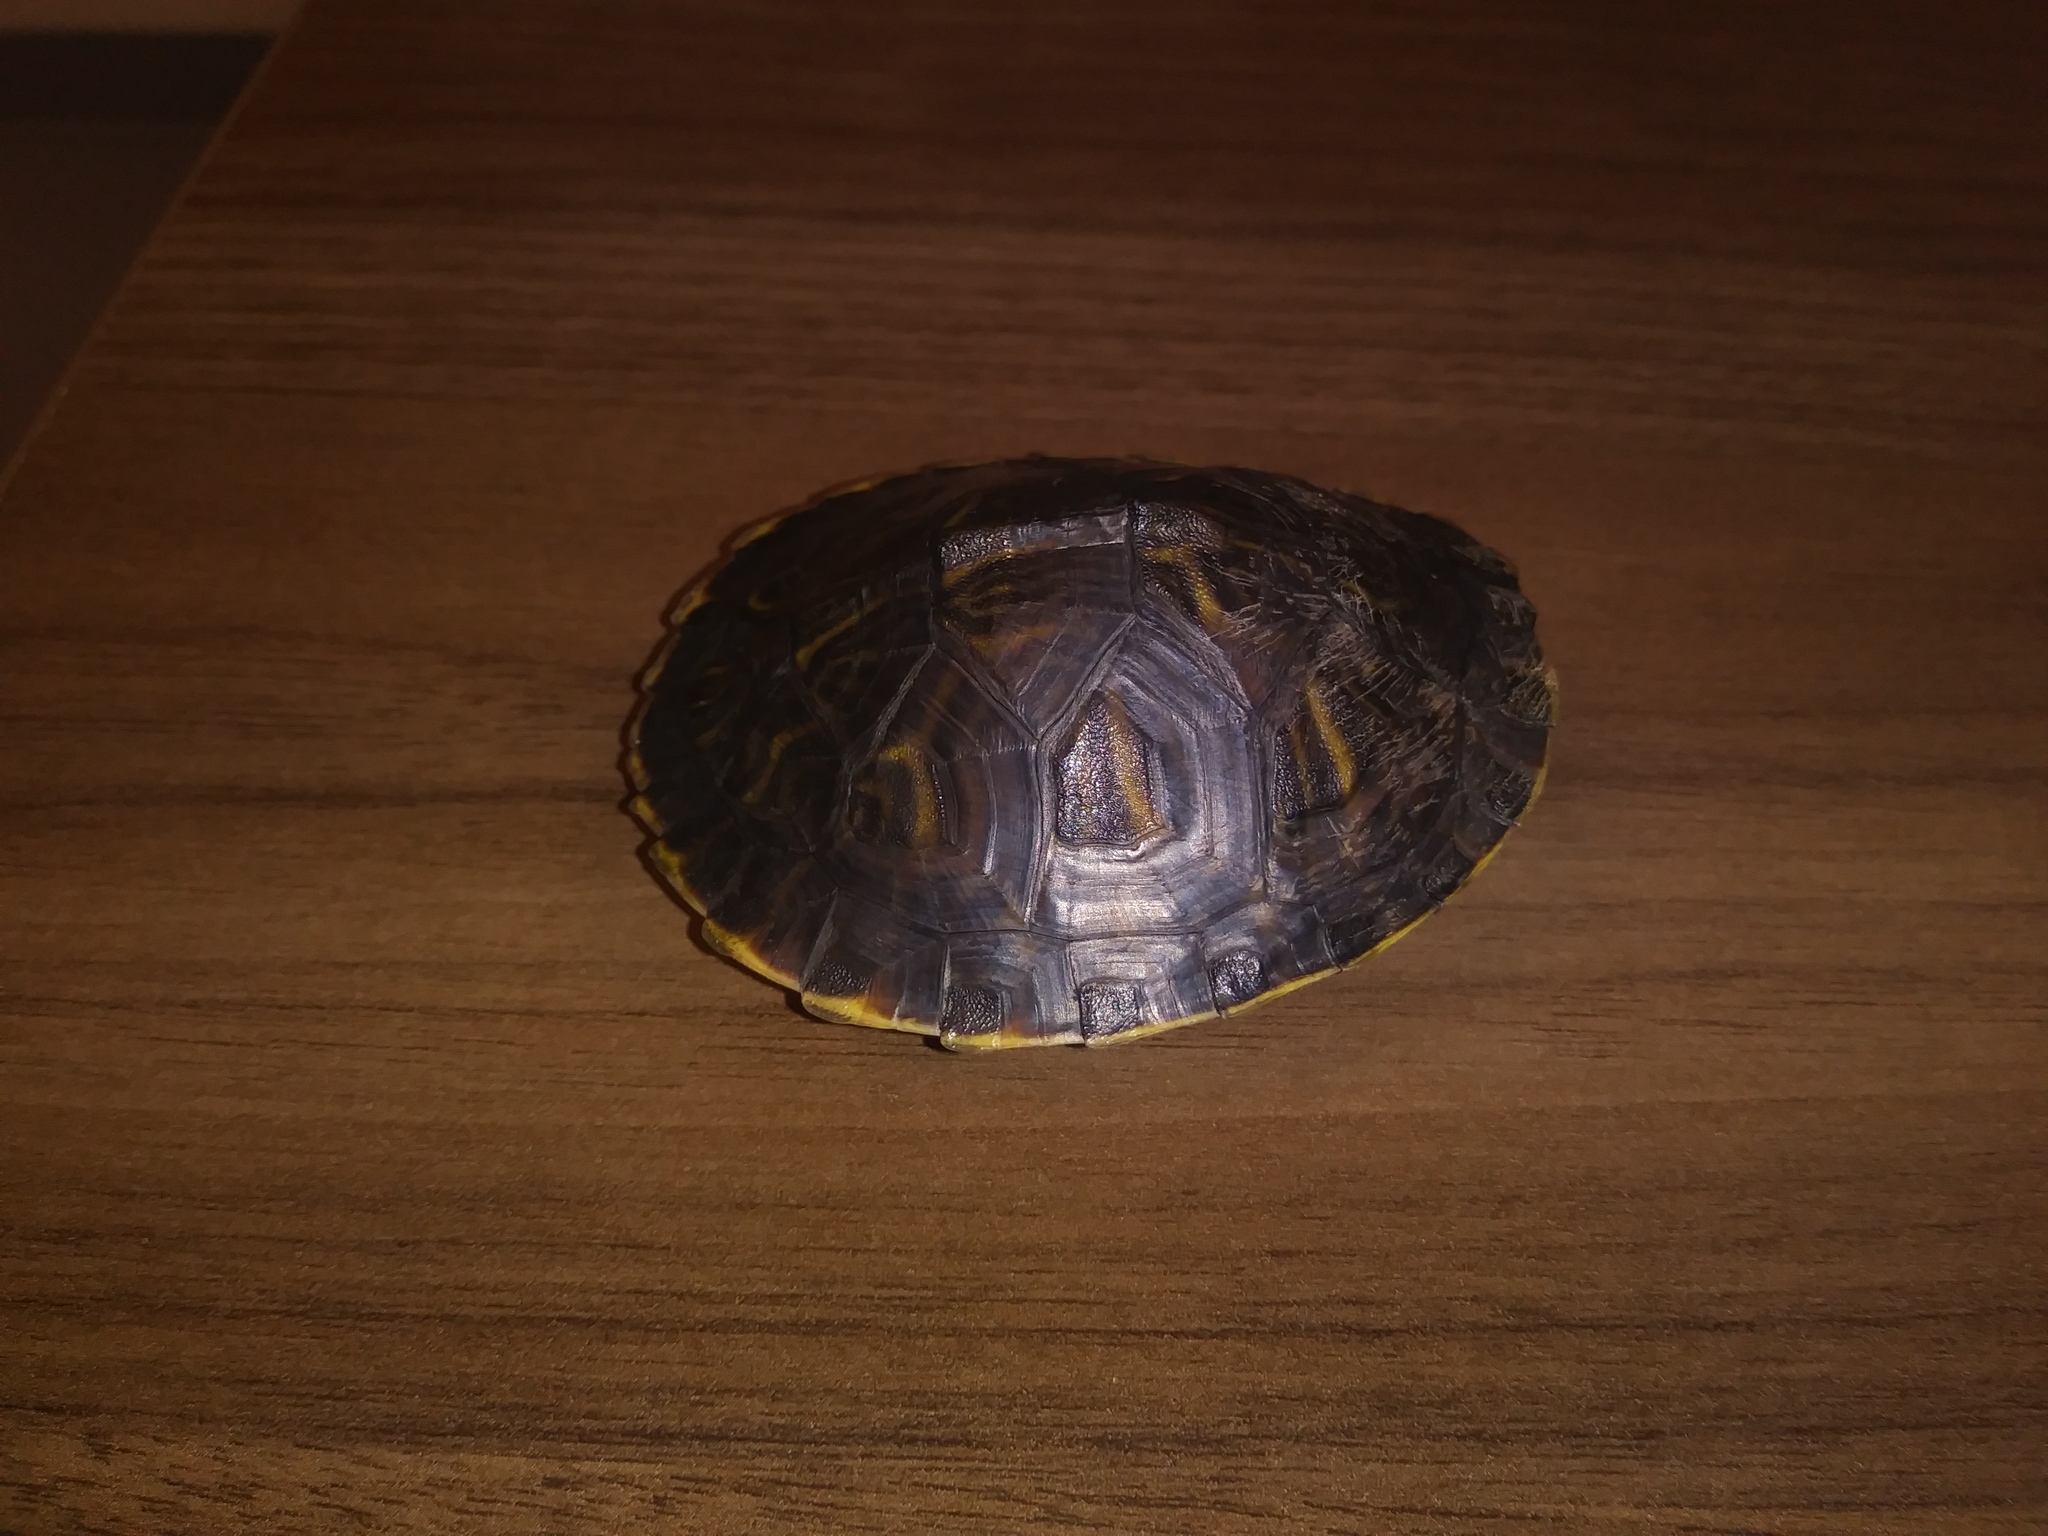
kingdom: Animalia
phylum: Chordata
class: Testudines
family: Emydidae
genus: Pseudemys
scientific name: Pseudemys peninsularis
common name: Peninsula cooter
